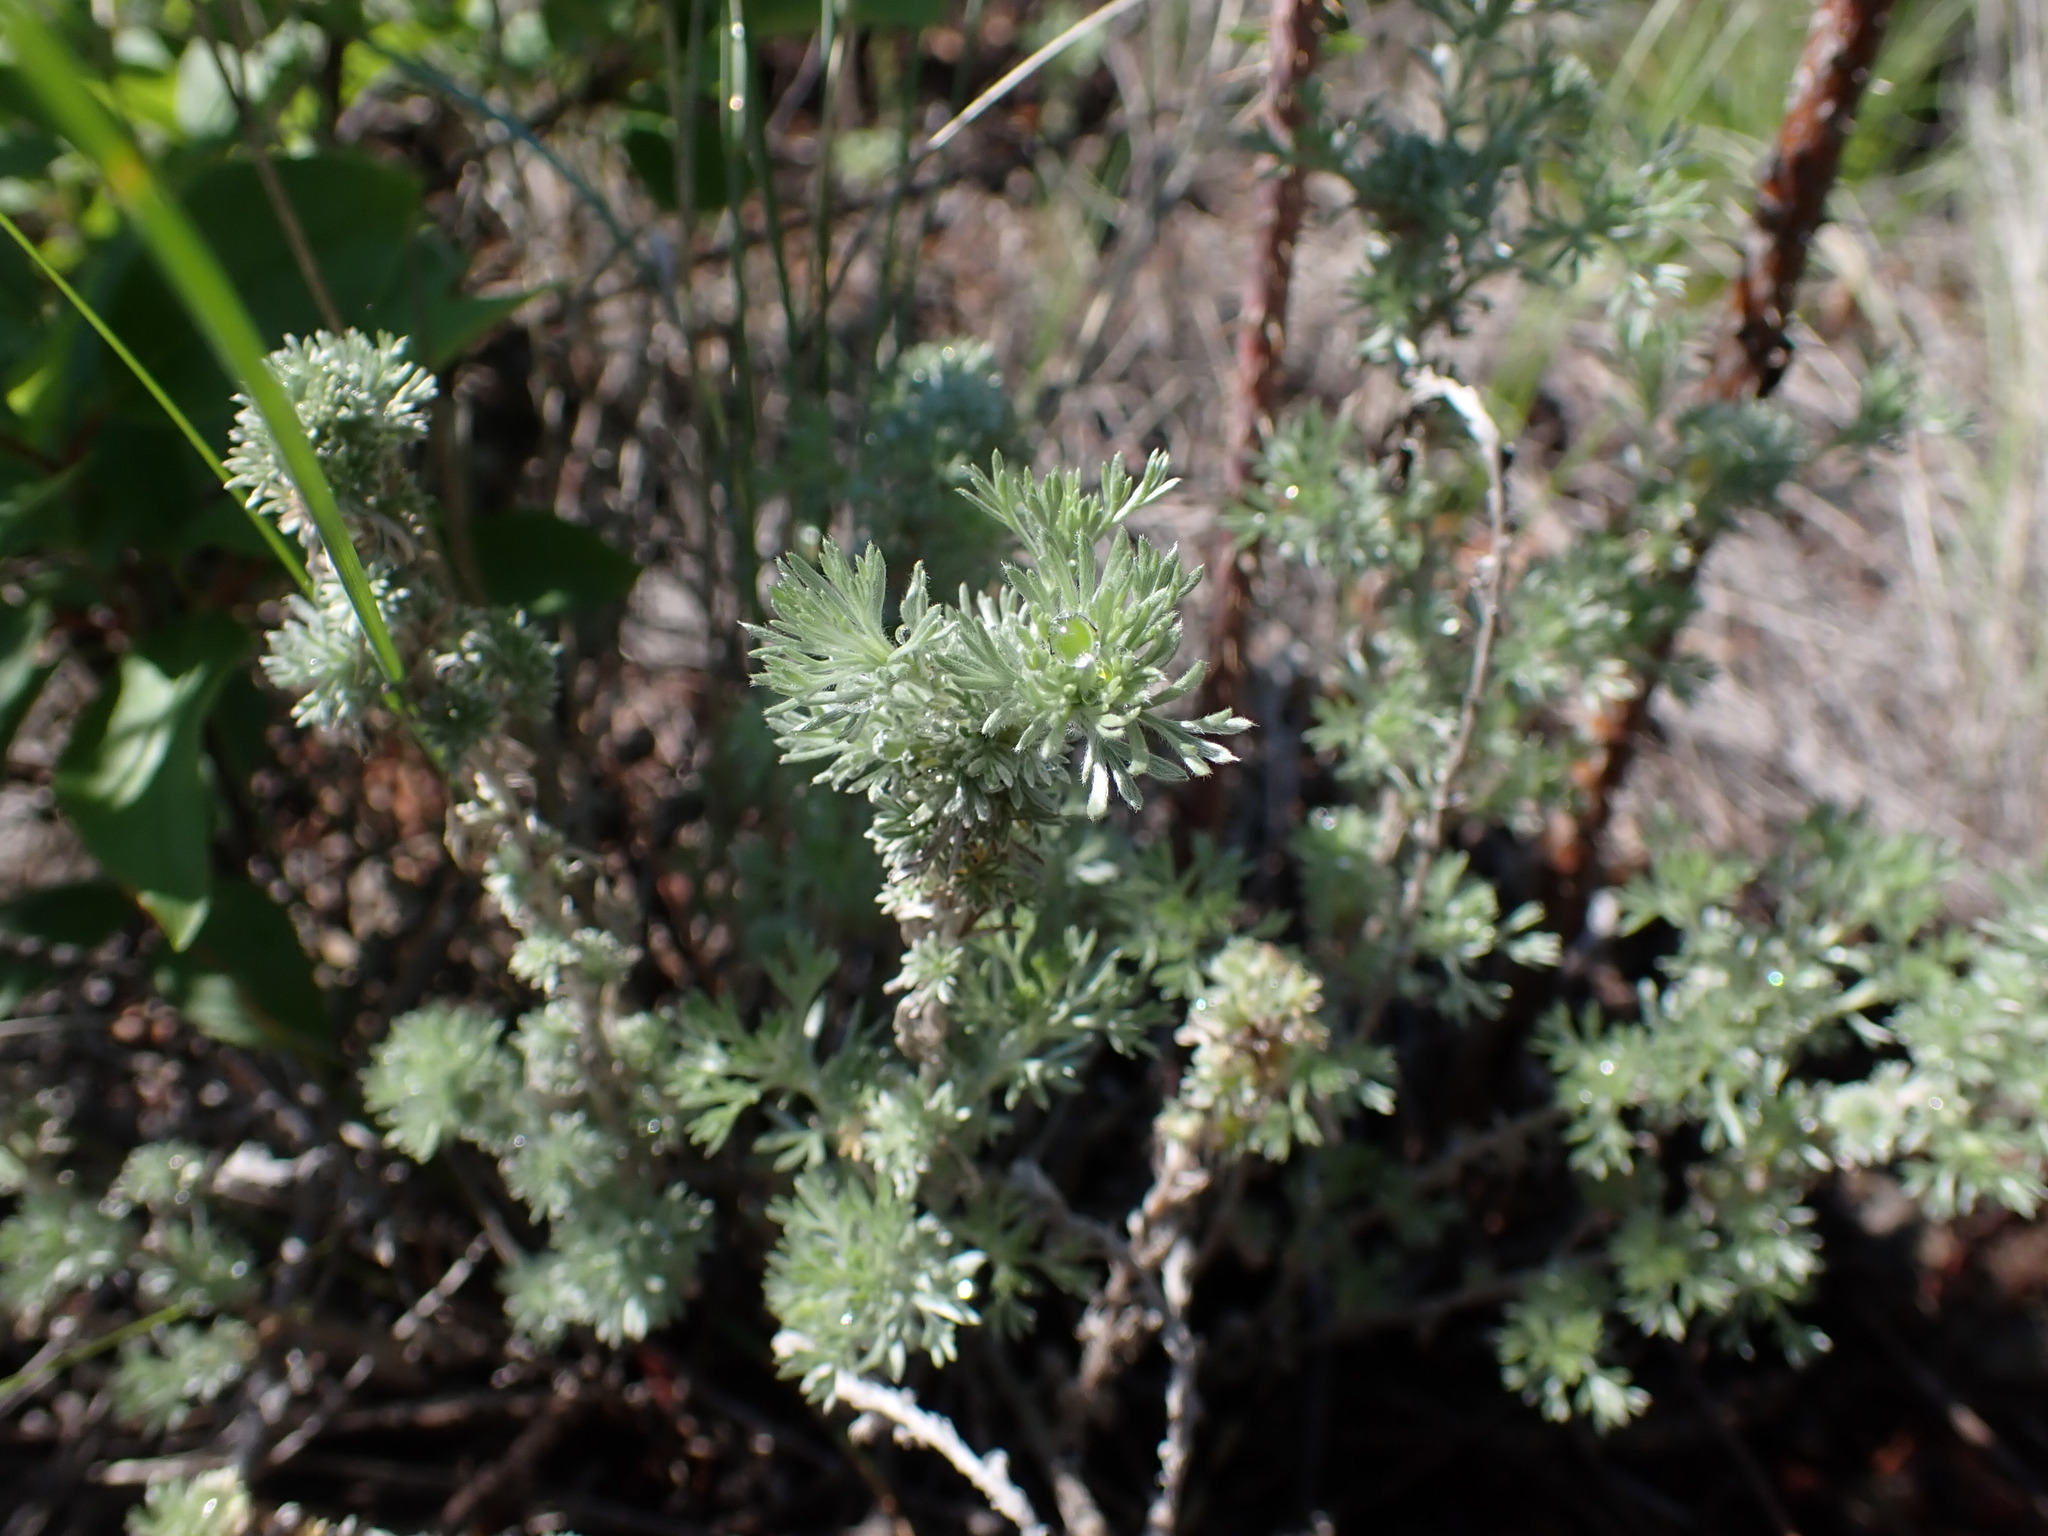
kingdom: Plantae
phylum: Tracheophyta
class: Magnoliopsida
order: Asterales
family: Asteraceae
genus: Artemisia
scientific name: Artemisia frigida
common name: Prairie sagewort
